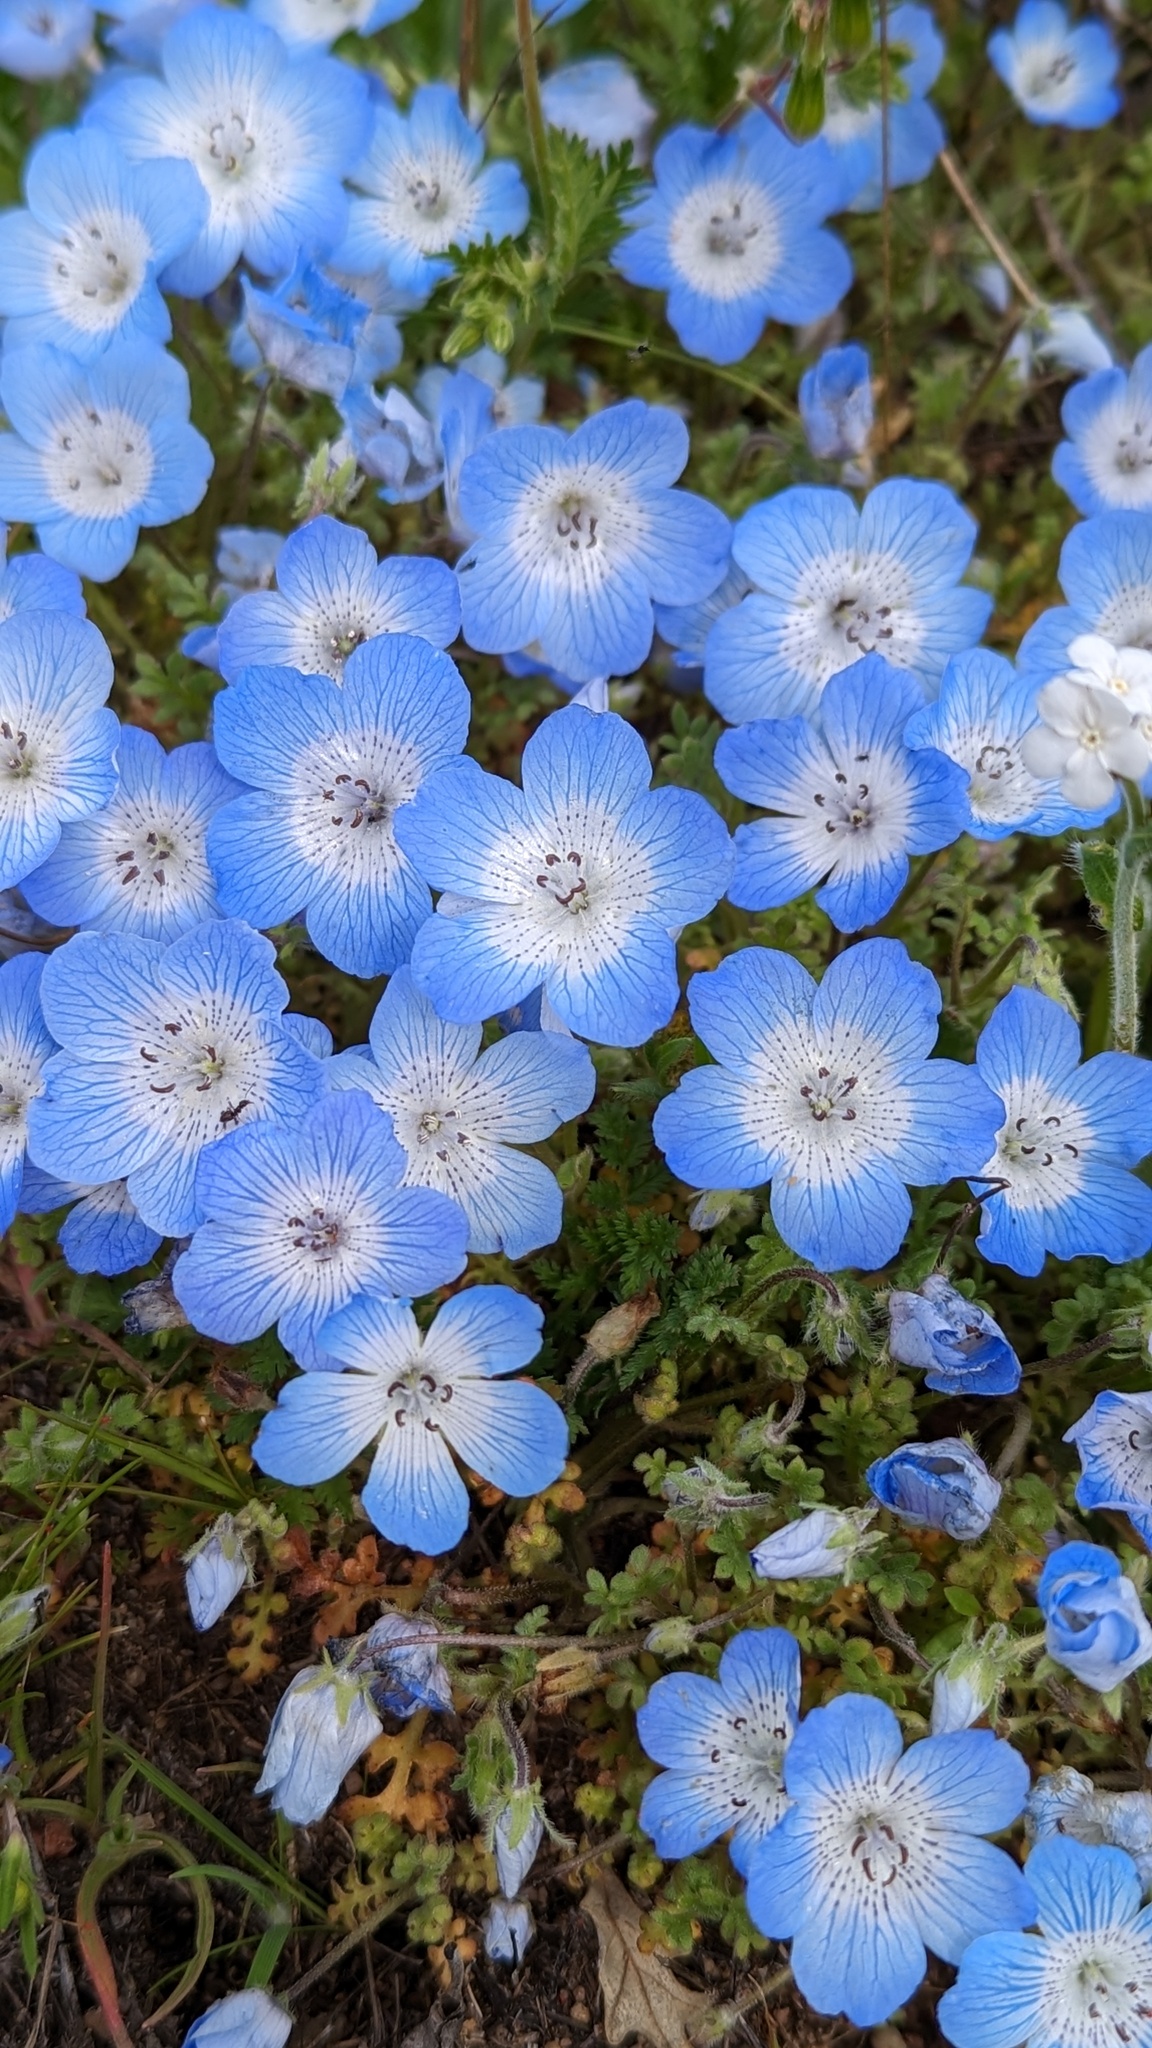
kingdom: Plantae
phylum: Tracheophyta
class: Magnoliopsida
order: Boraginales
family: Hydrophyllaceae
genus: Nemophila
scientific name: Nemophila menziesii
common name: Baby's-blue-eyes
